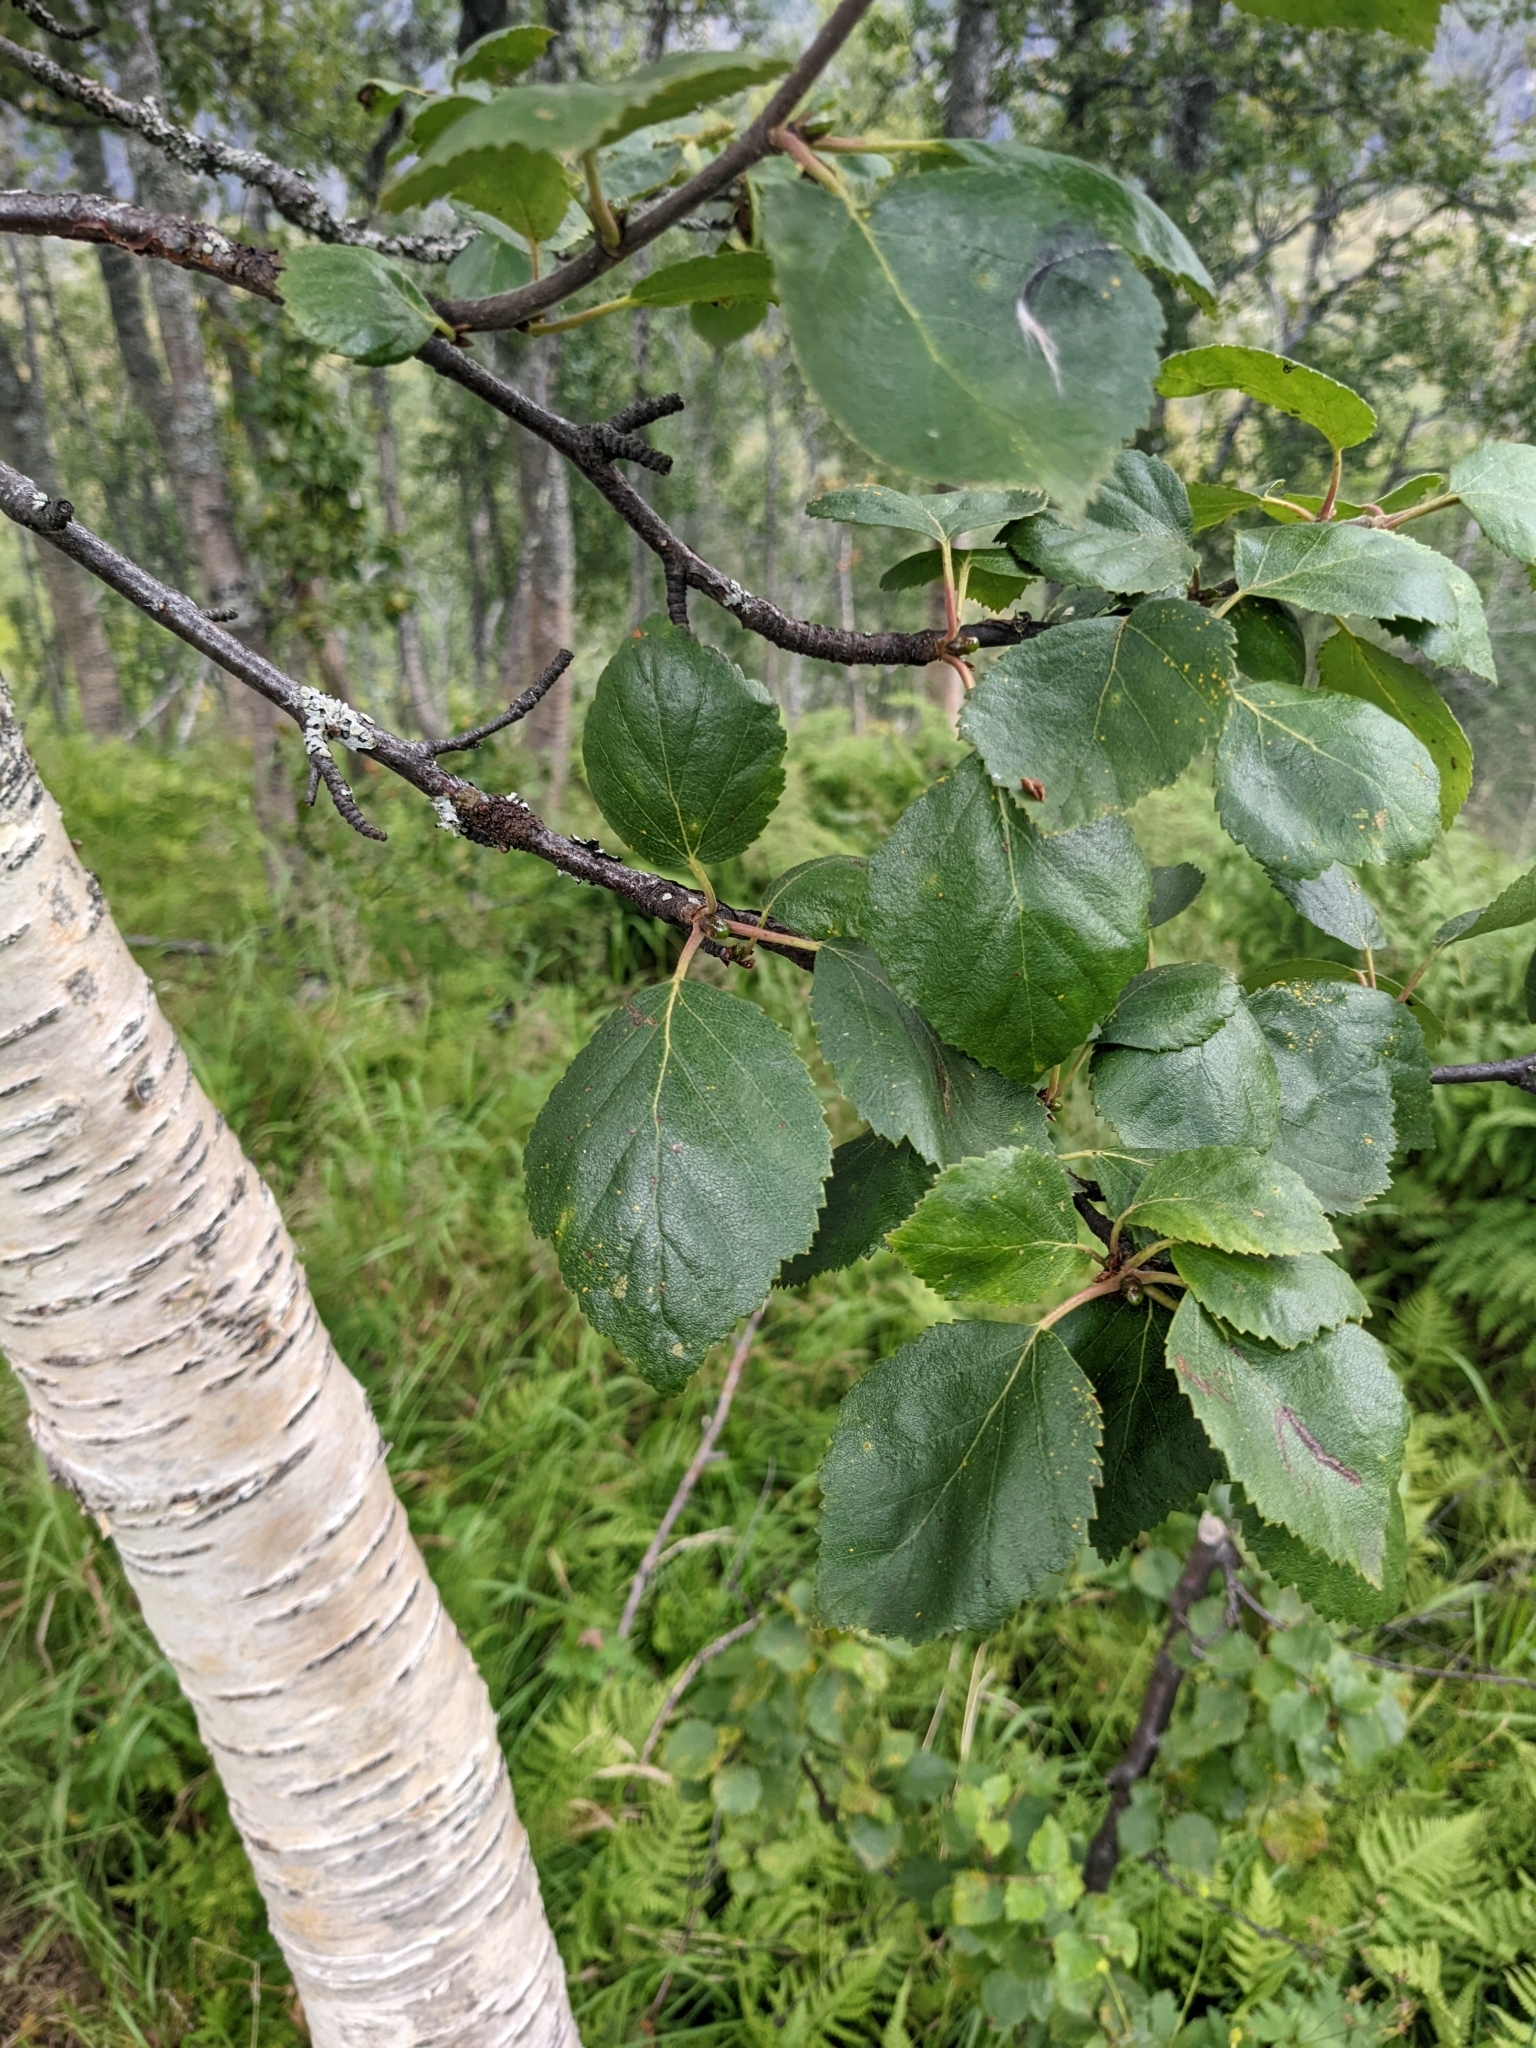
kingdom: Plantae
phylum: Tracheophyta
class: Magnoliopsida
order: Fagales
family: Betulaceae
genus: Betula
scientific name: Betula pubescens
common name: Downy birch
